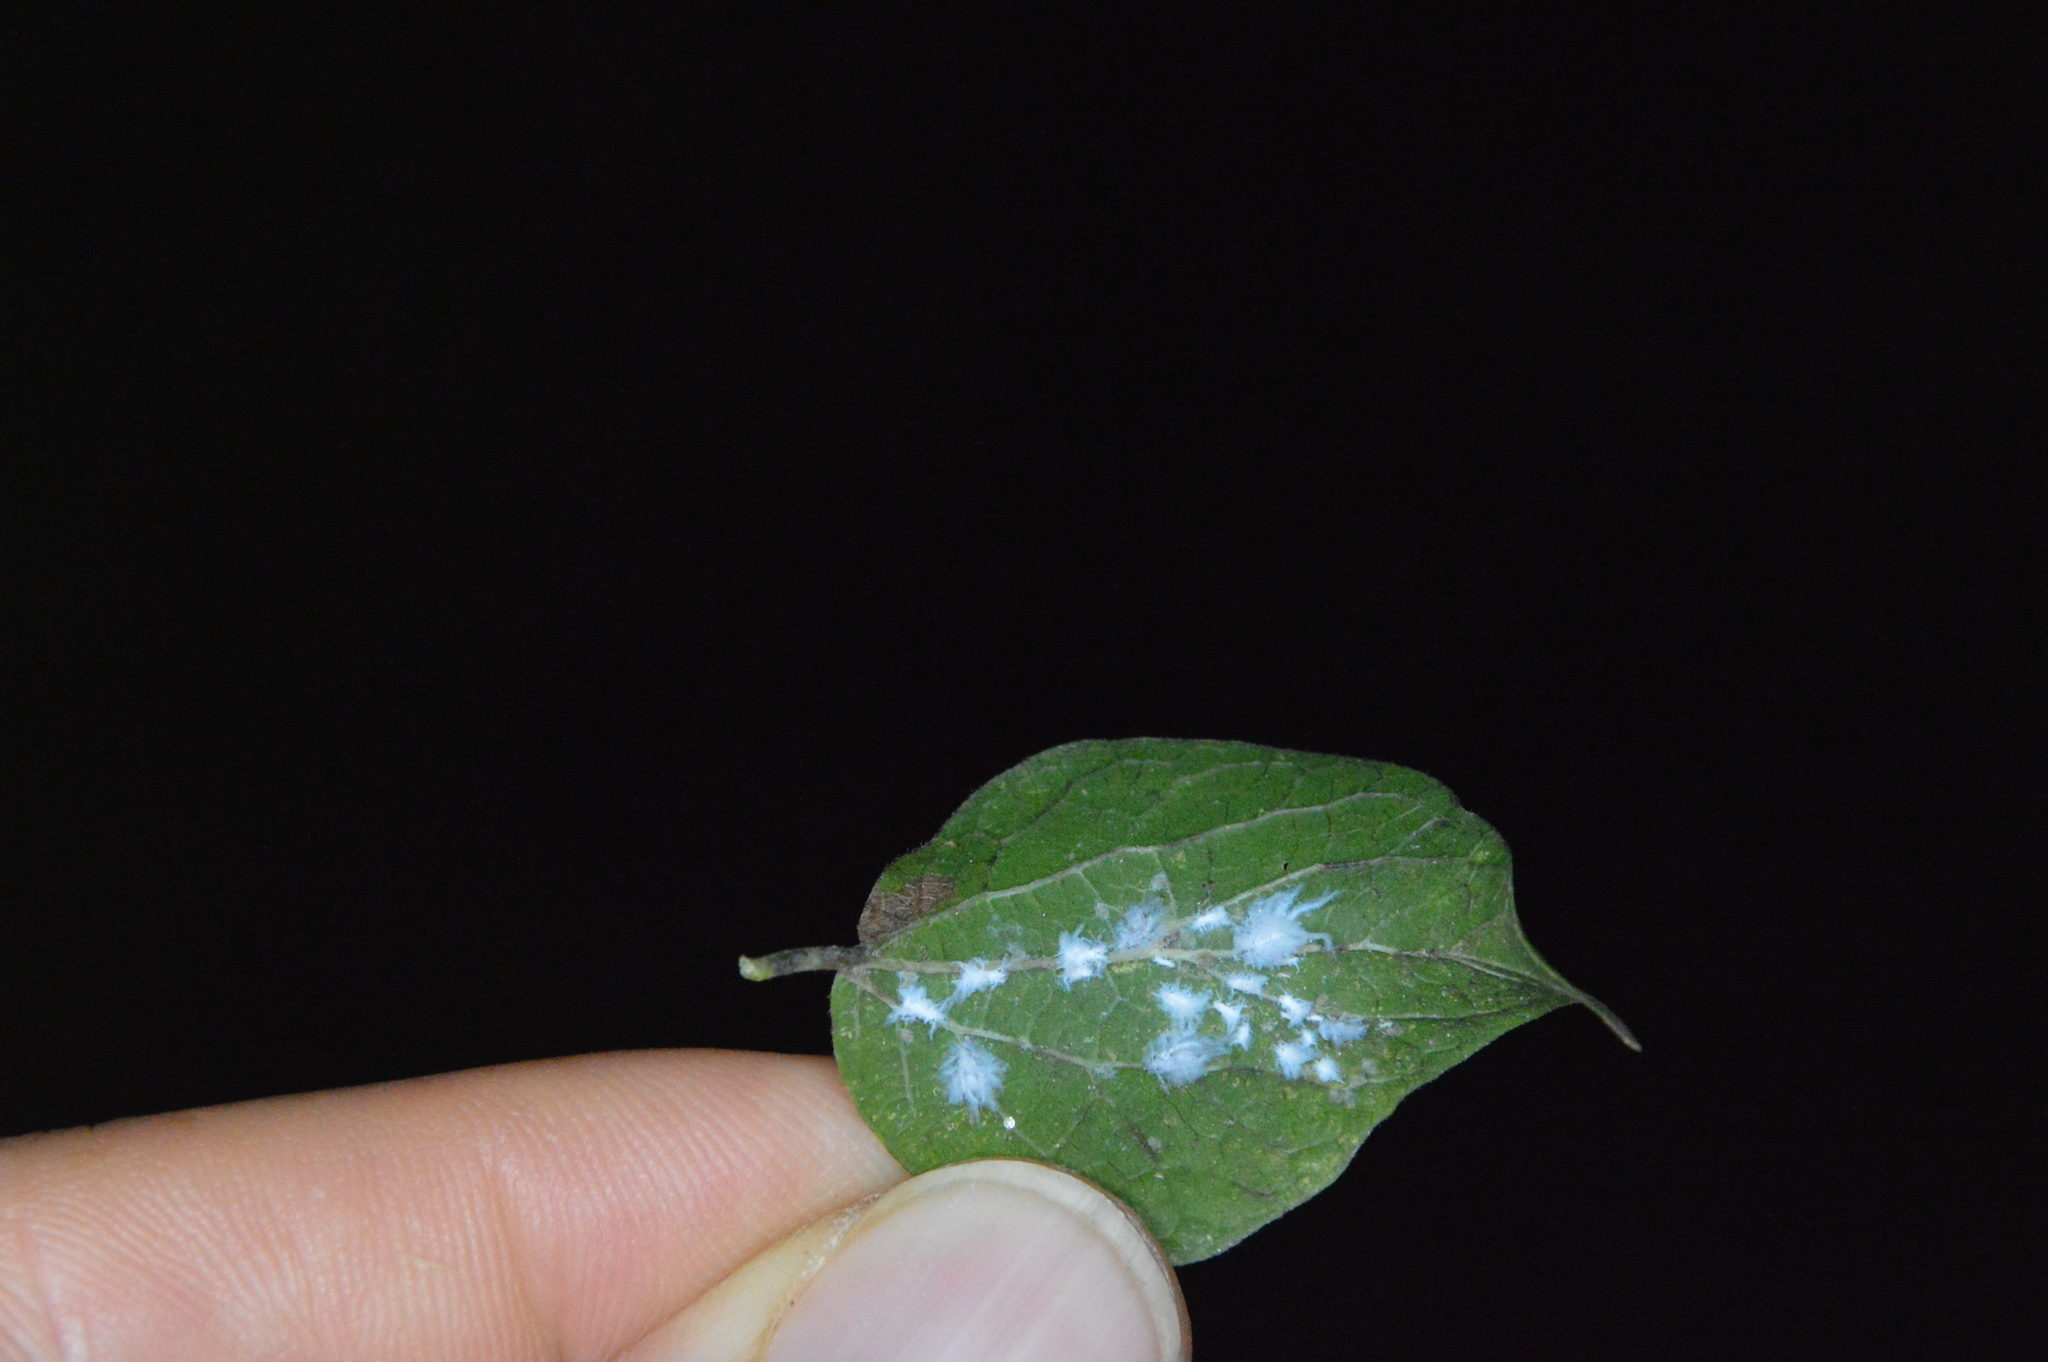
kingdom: Animalia
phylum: Arthropoda
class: Insecta
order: Hemiptera
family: Aphididae
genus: Shivaphis
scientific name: Shivaphis celti
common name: Asian wooly hackberry aphid
